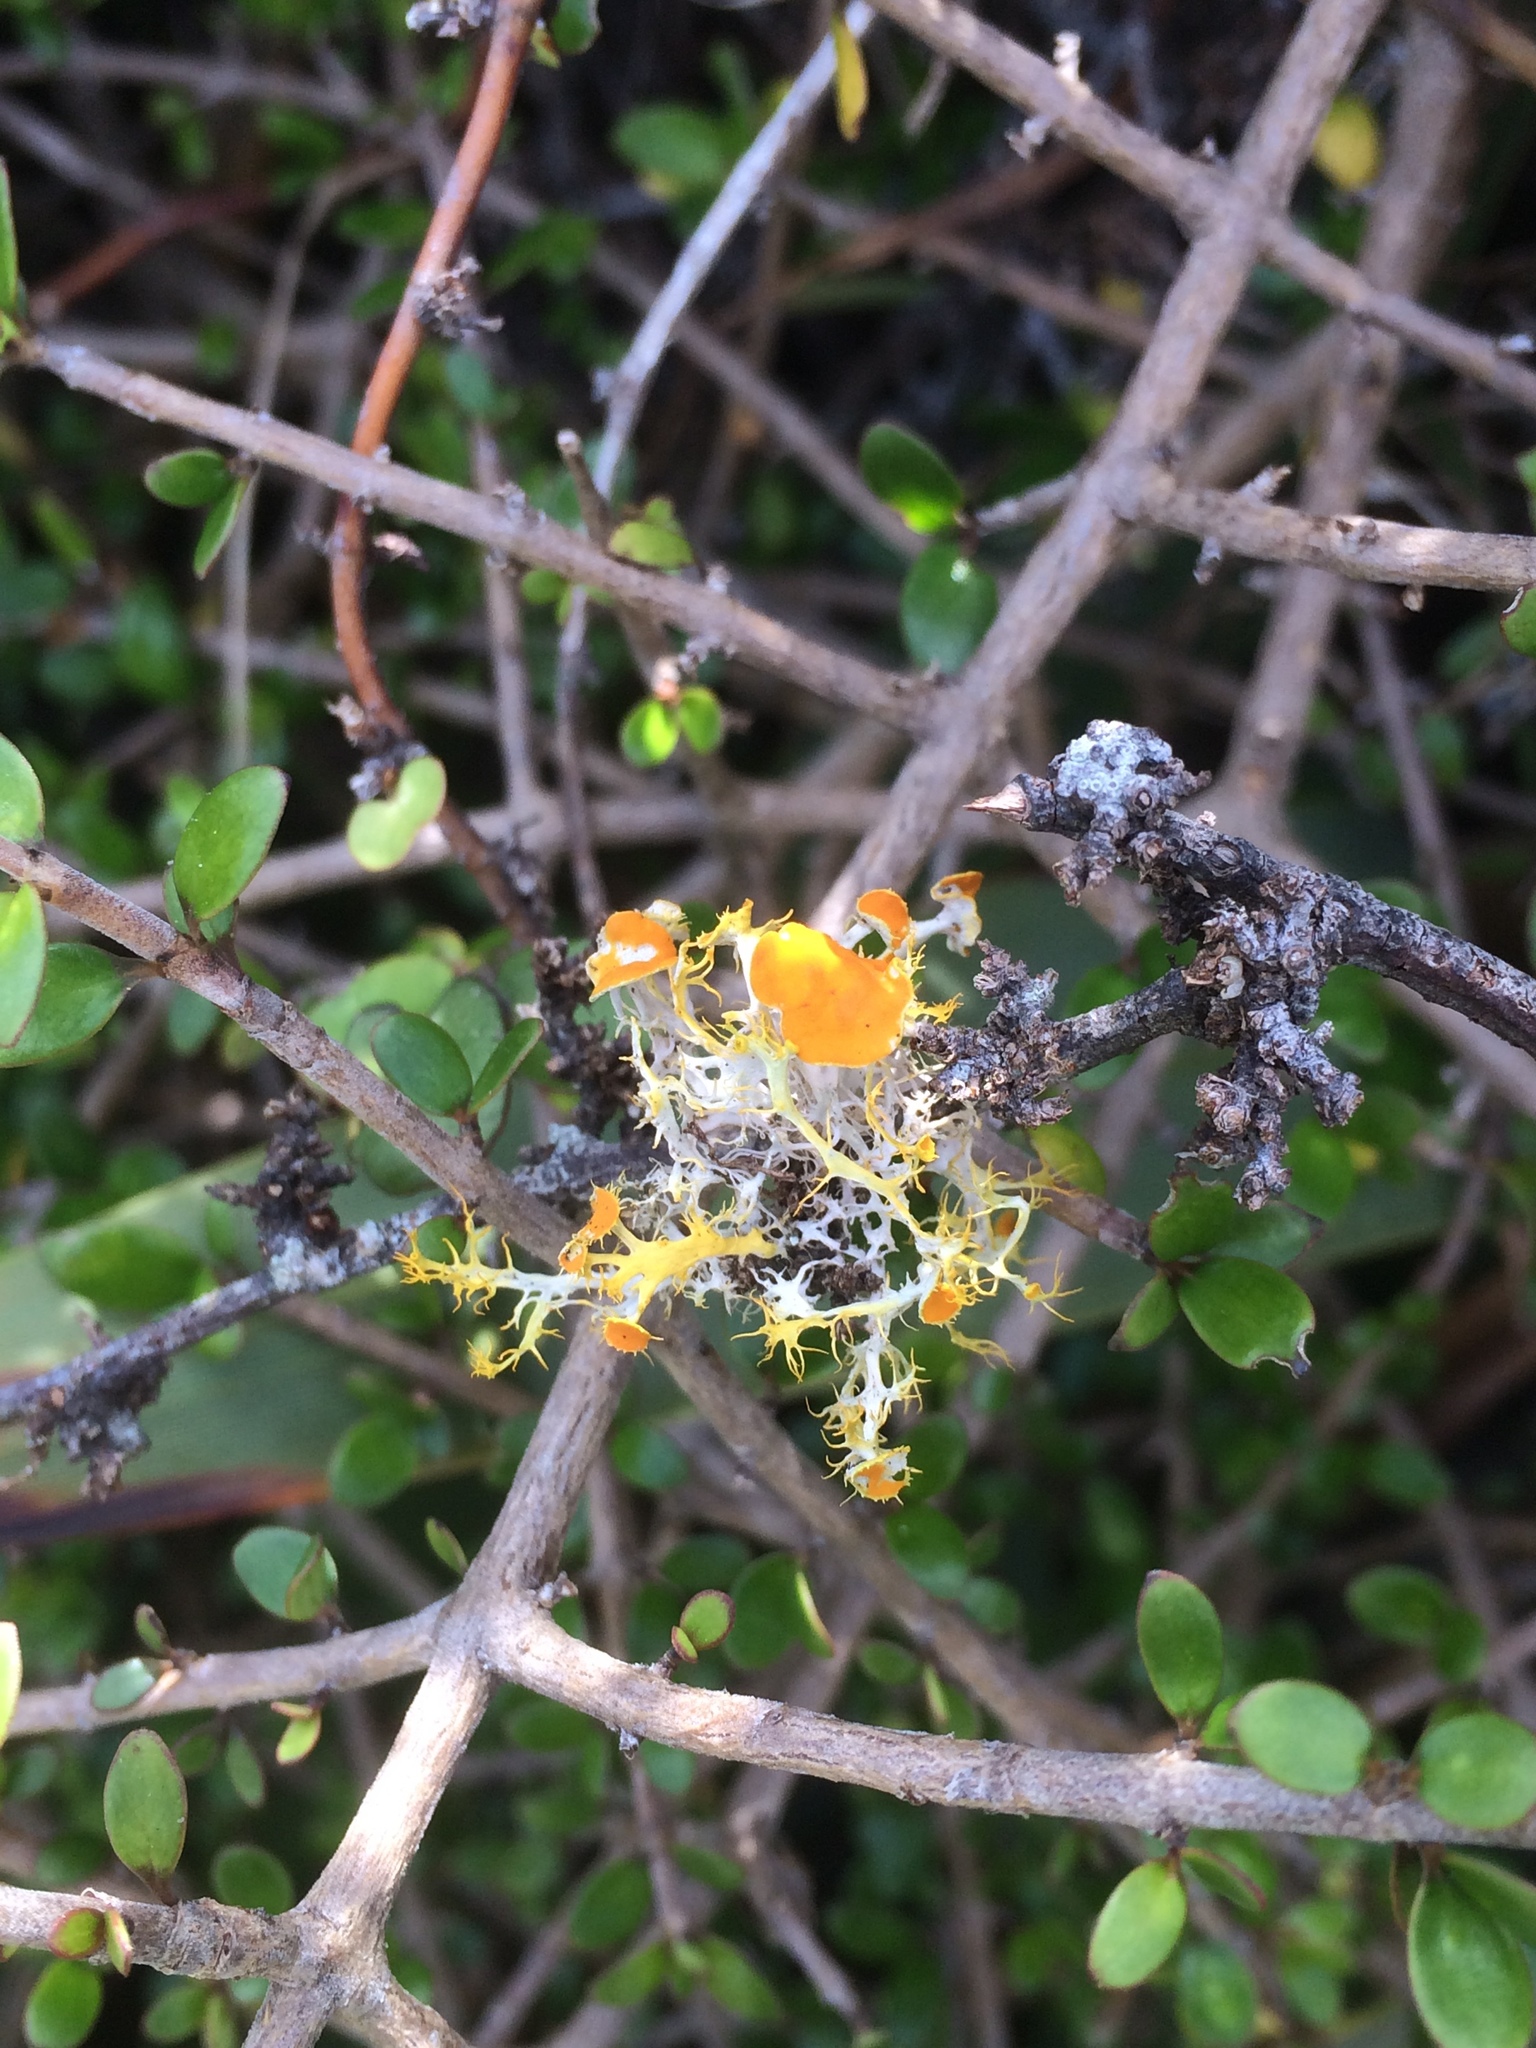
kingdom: Fungi
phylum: Ascomycota
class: Lecanoromycetes
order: Teloschistales
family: Teloschistaceae
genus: Niorma
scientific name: Niorma chrysophthalma
